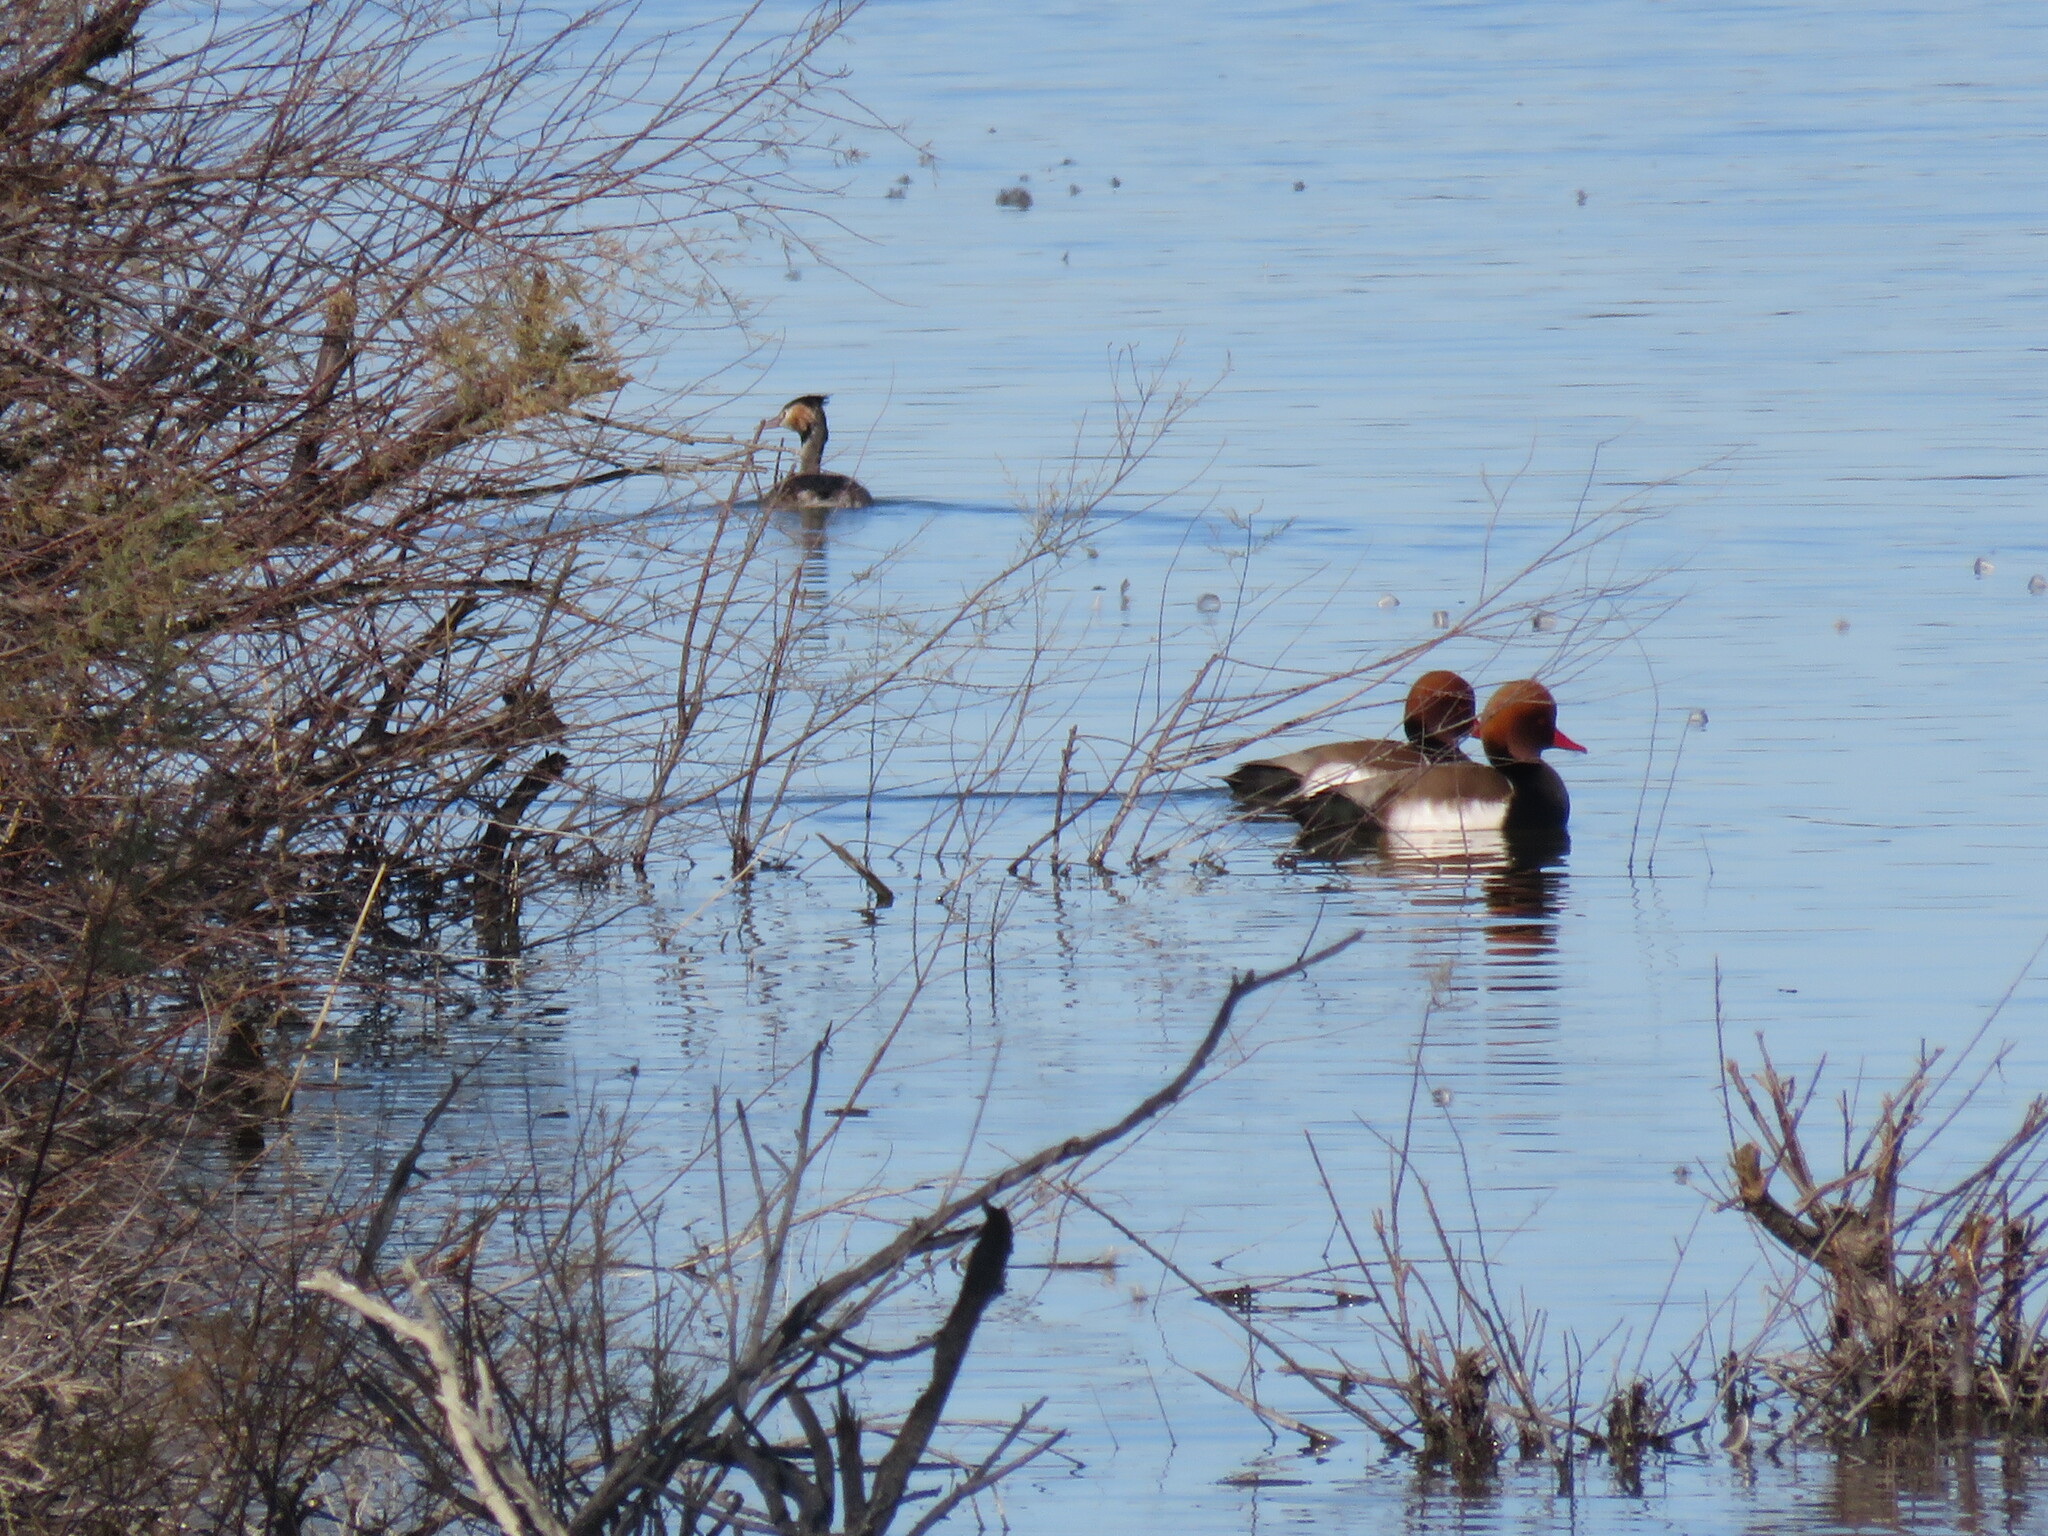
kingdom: Animalia
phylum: Chordata
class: Aves
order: Anseriformes
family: Anatidae
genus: Netta
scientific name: Netta rufina
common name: Red-crested pochard
